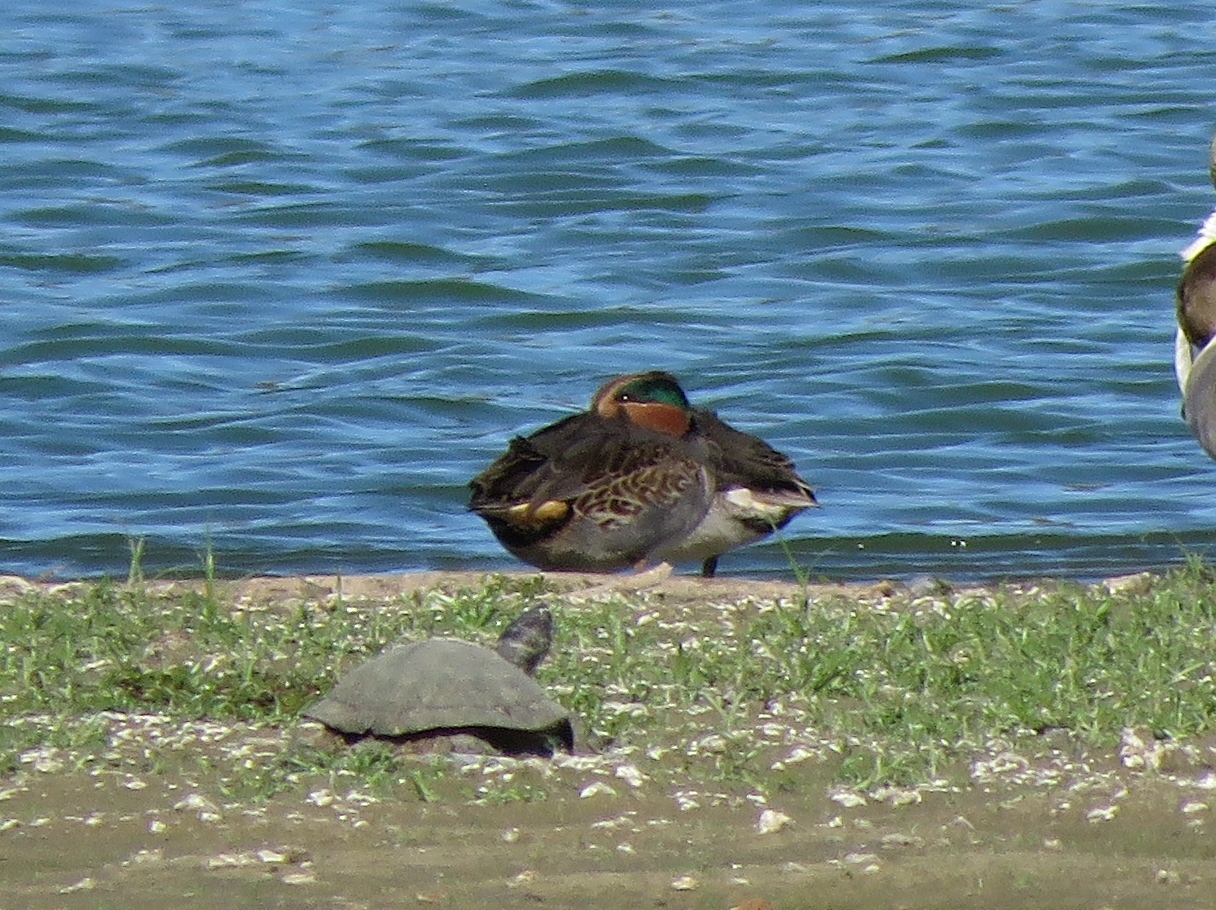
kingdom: Animalia
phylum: Chordata
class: Aves
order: Anseriformes
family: Anatidae
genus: Anas
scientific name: Anas crecca
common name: Eurasian teal
